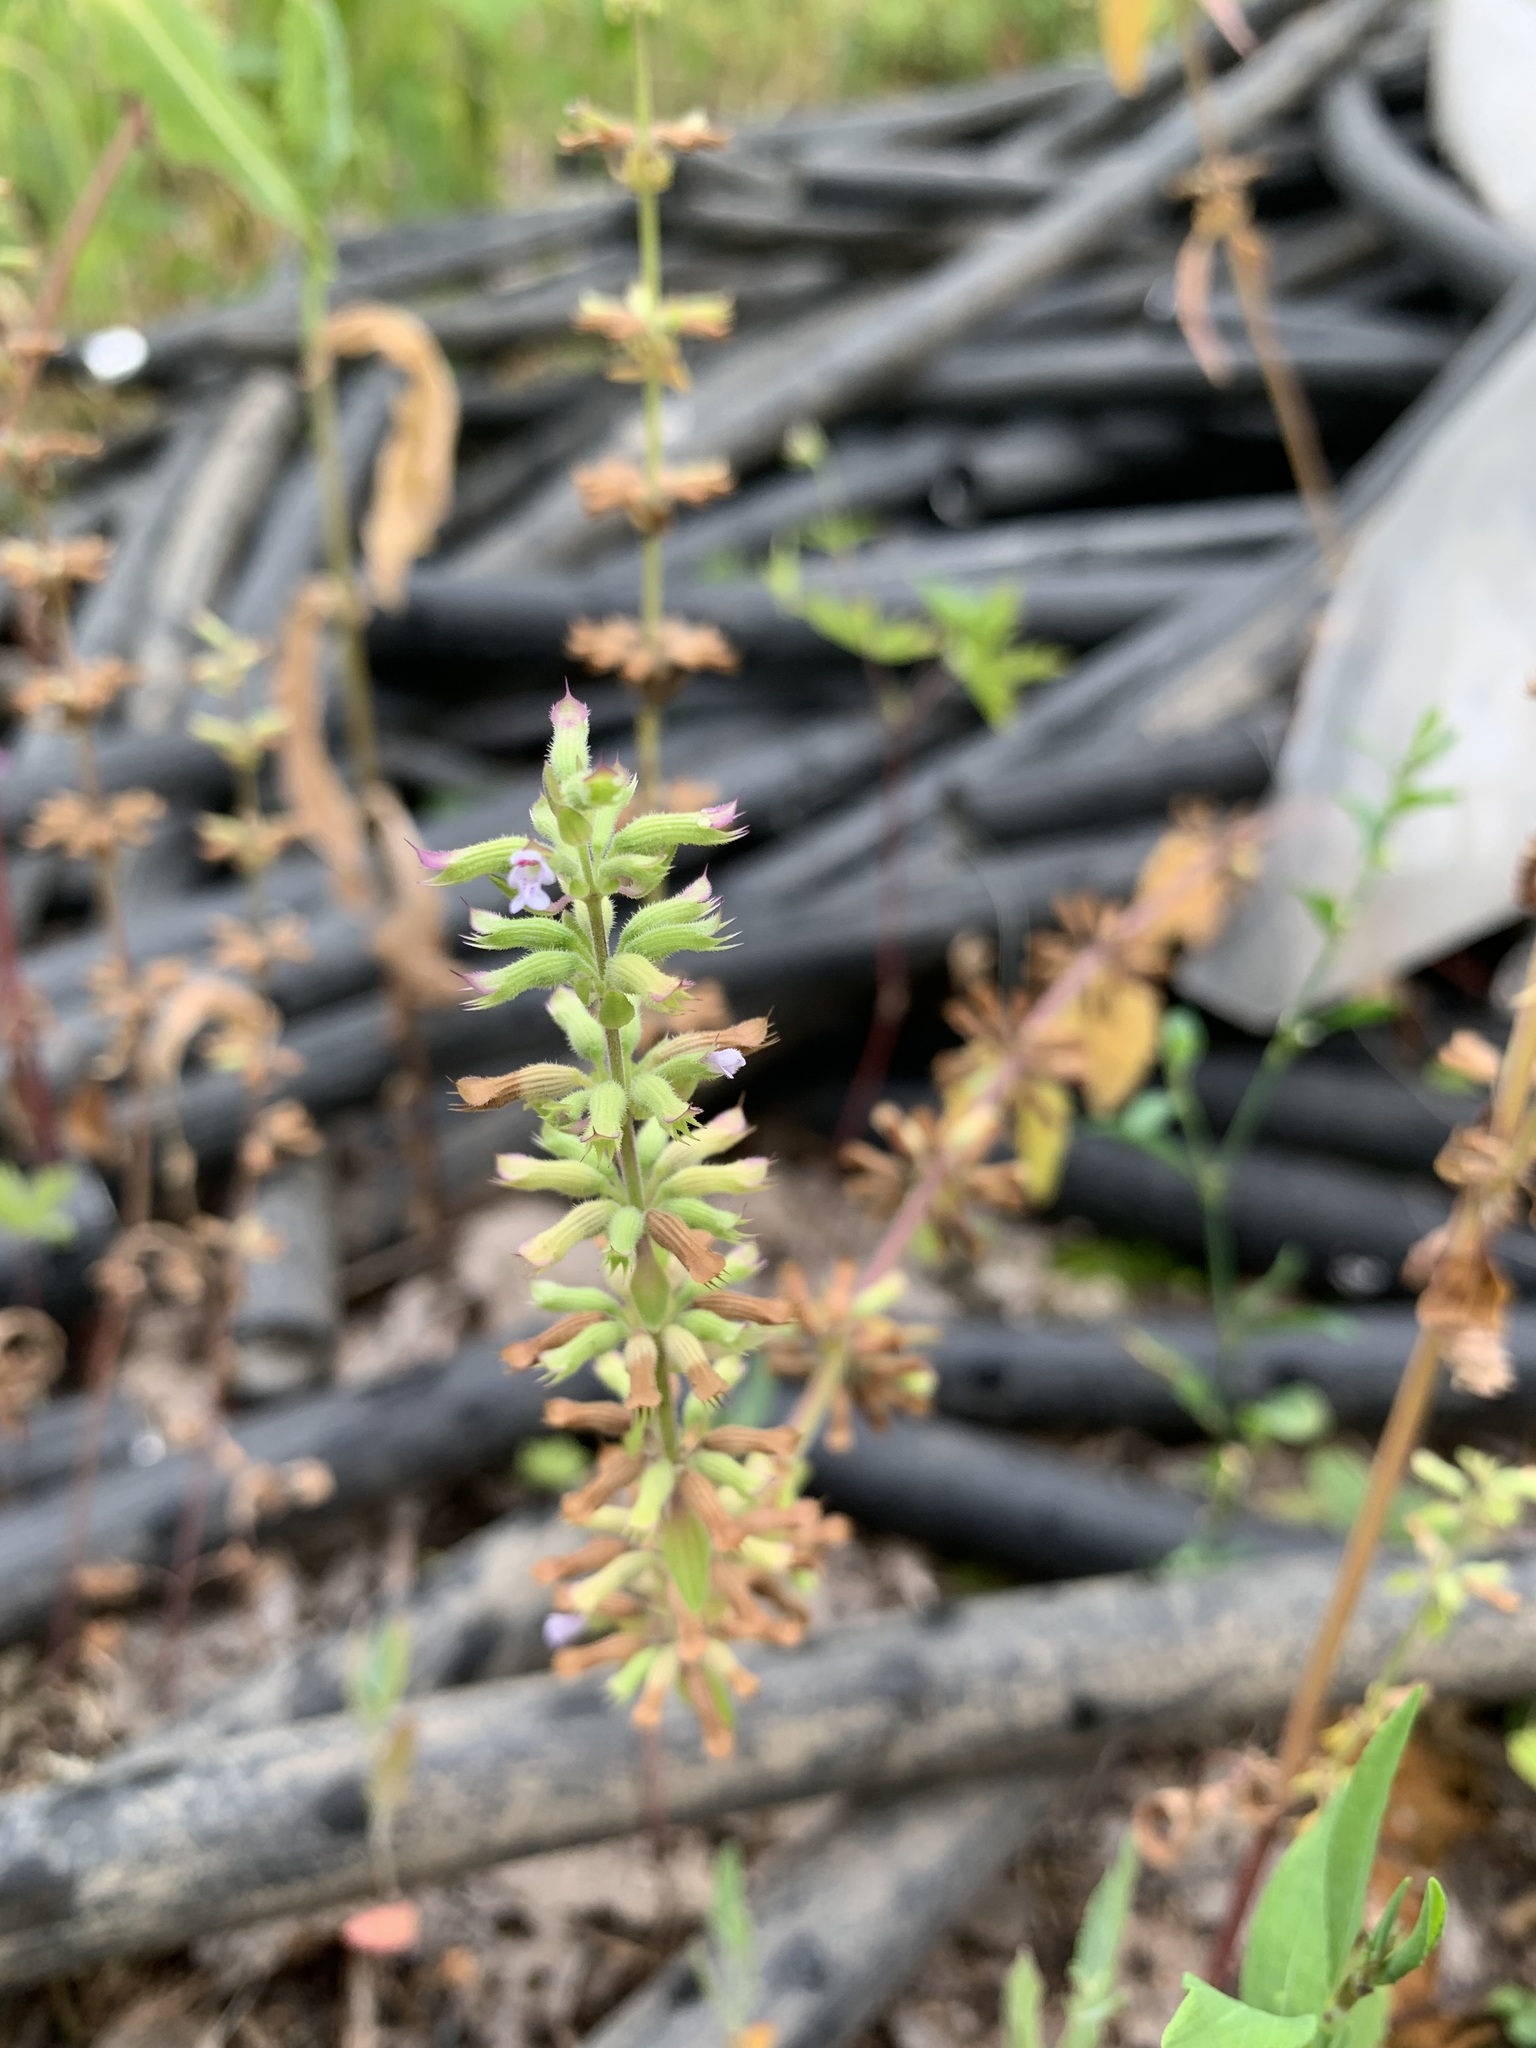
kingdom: Plantae
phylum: Tracheophyta
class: Magnoliopsida
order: Lamiales
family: Lamiaceae
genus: Dracocephalum
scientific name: Dracocephalum thymiflorum
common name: Thymeleaf dragonhead
